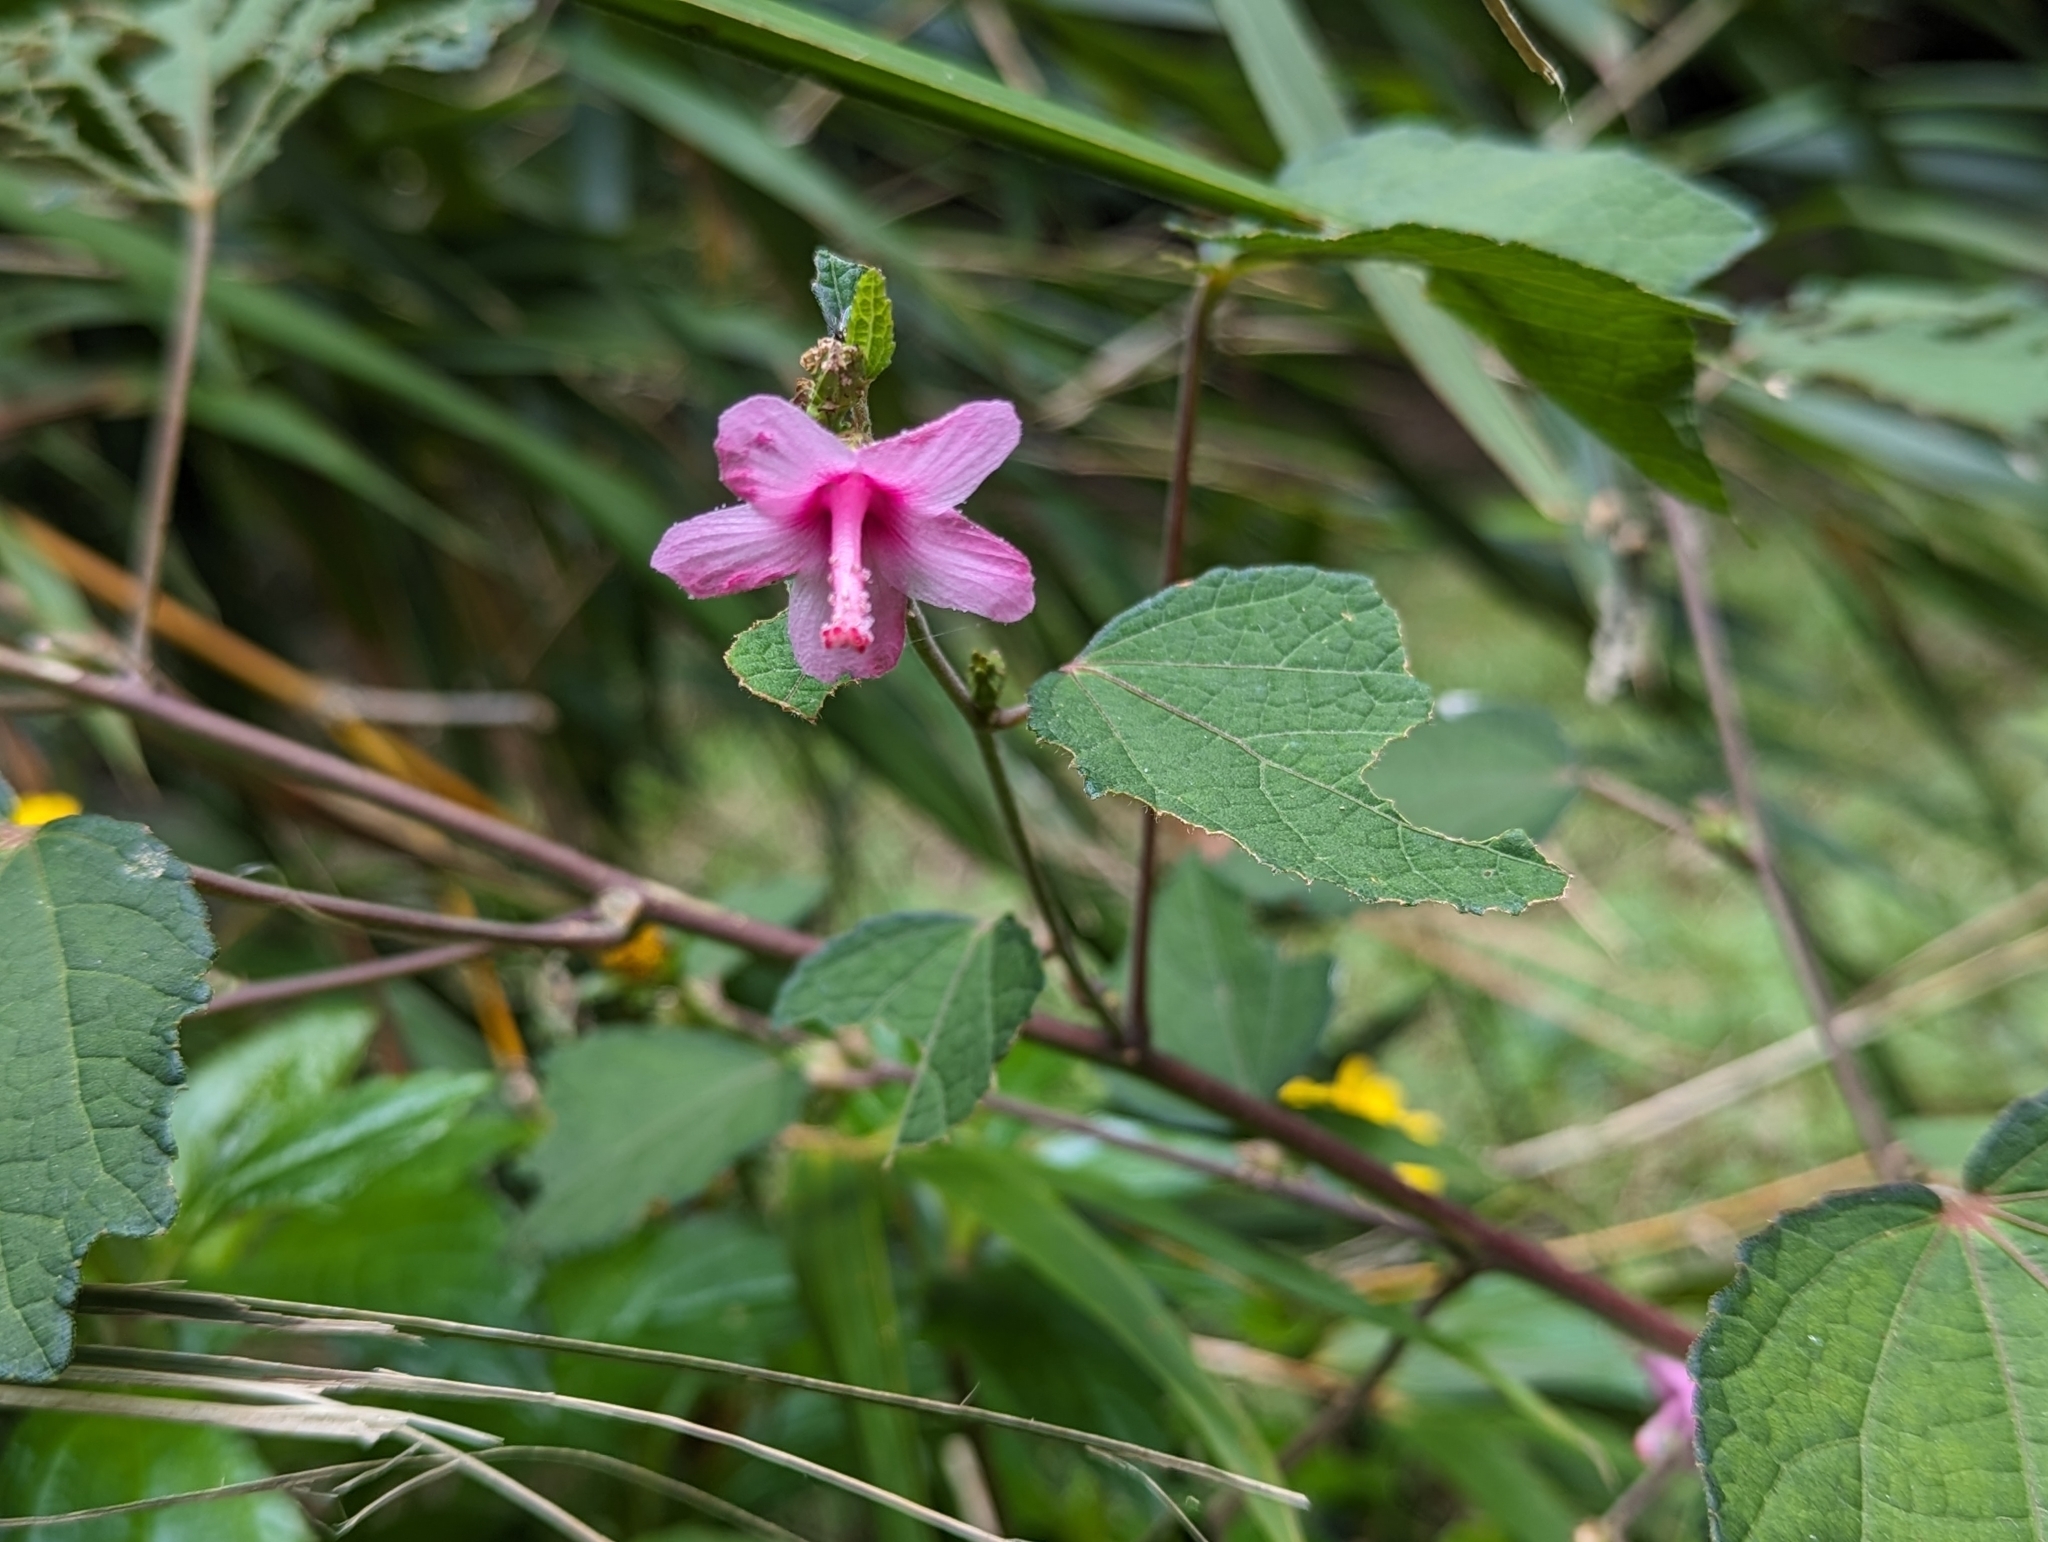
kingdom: Plantae
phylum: Tracheophyta
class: Magnoliopsida
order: Malvales
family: Malvaceae
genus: Urena
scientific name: Urena lobata
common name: Caesarweed
